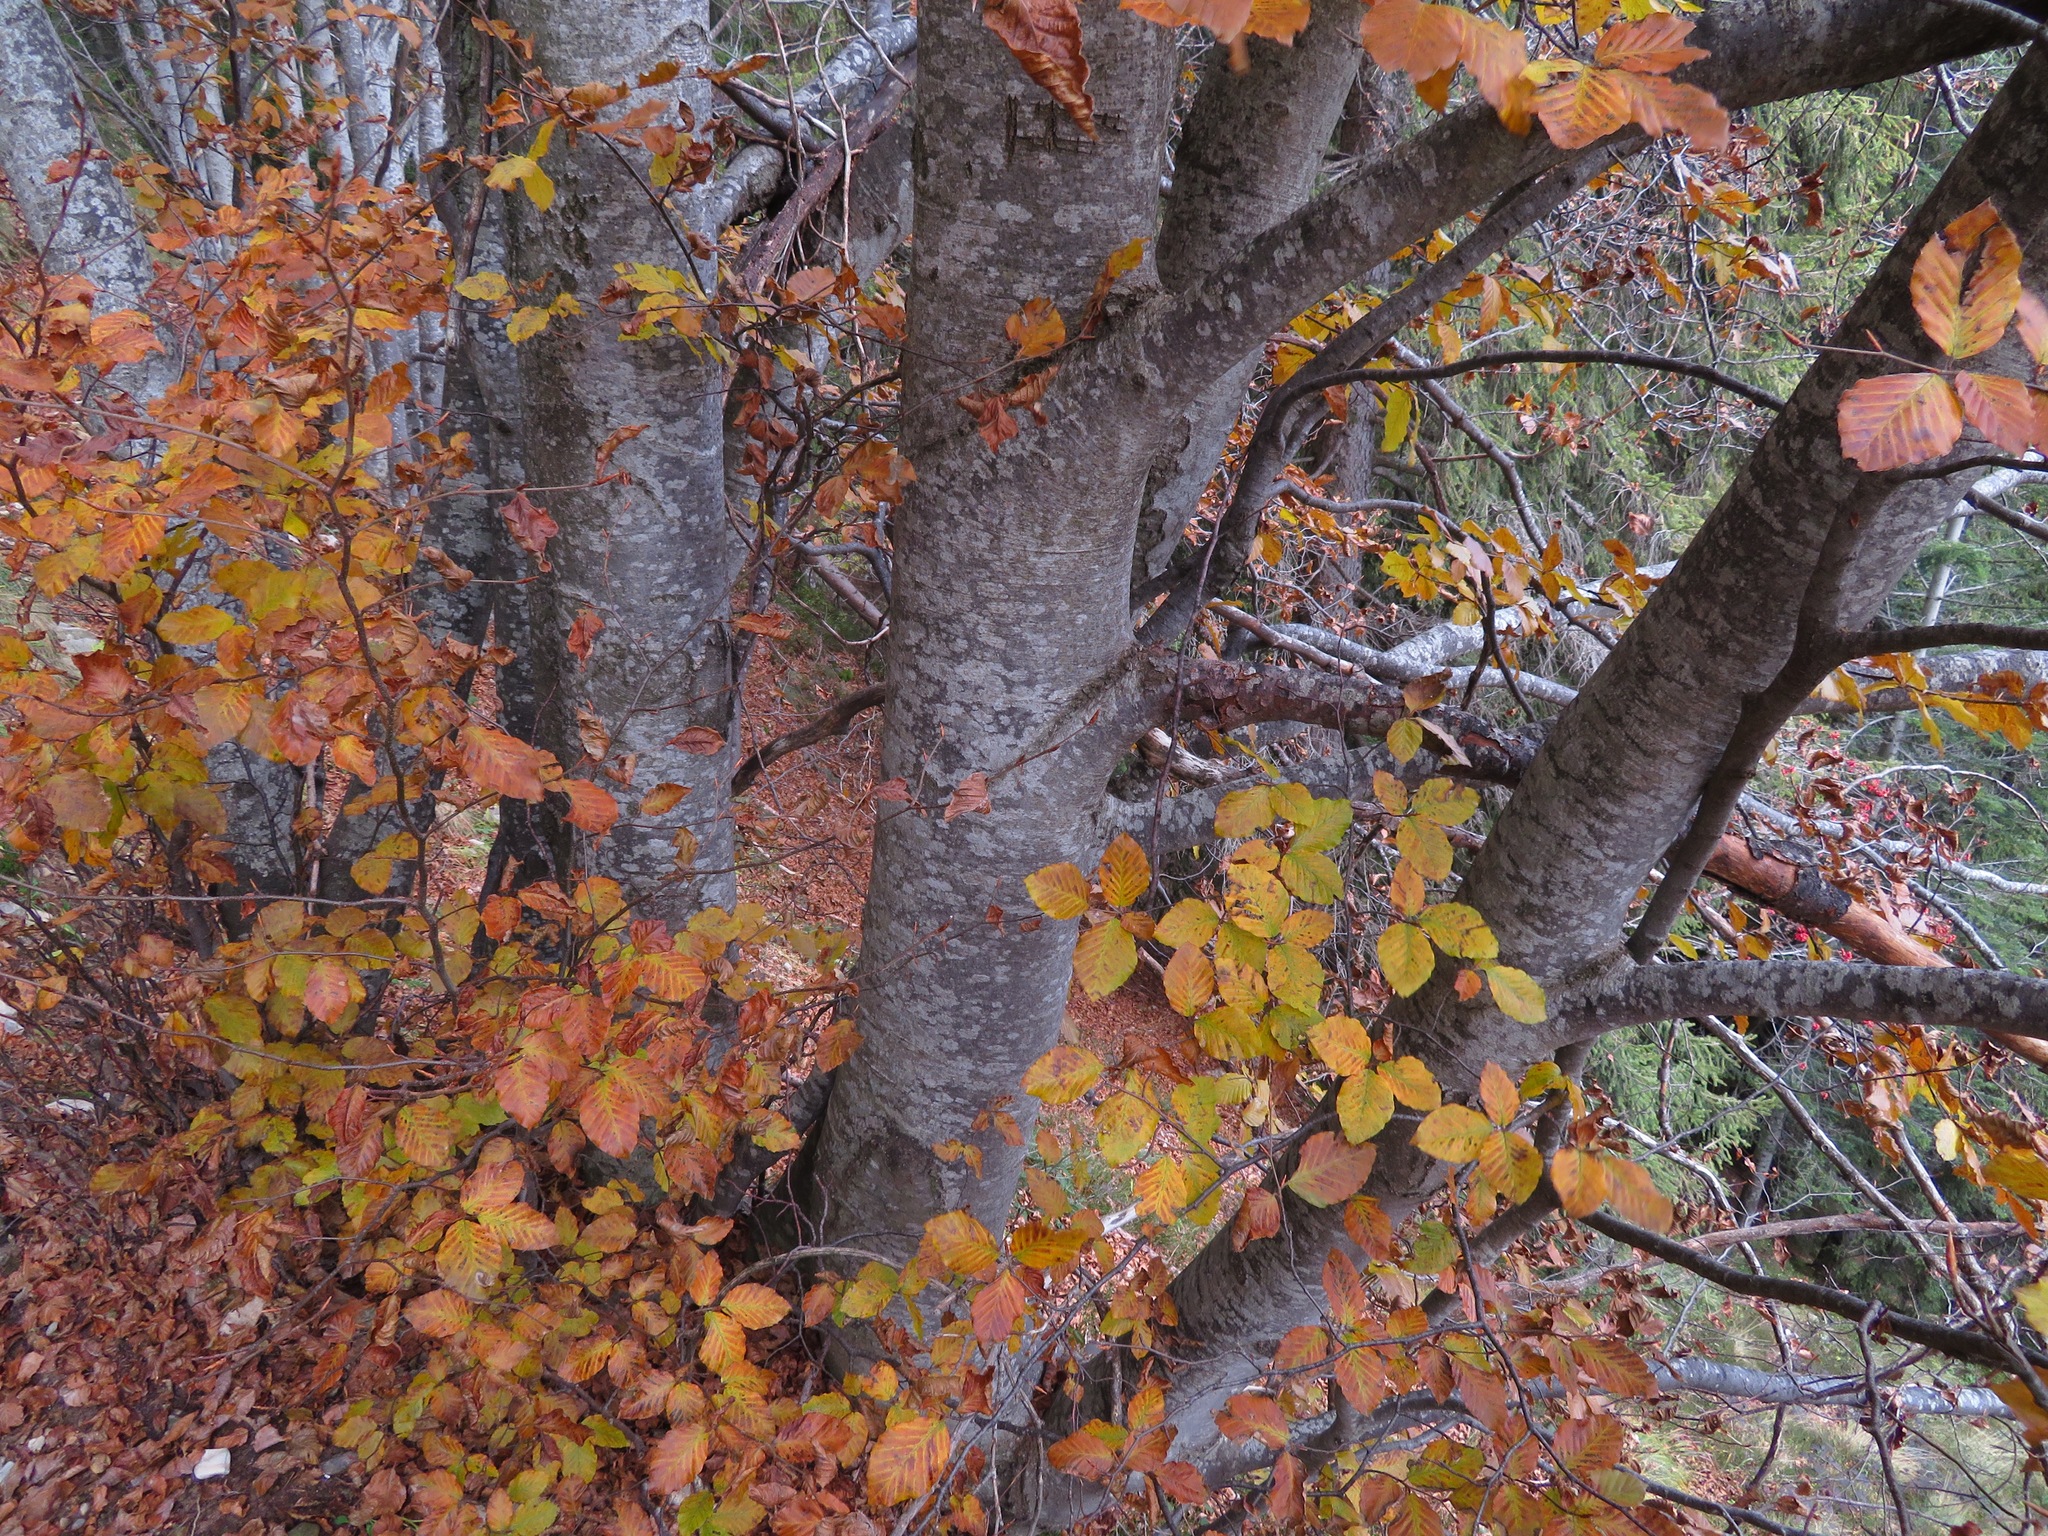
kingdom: Plantae
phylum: Tracheophyta
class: Magnoliopsida
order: Fagales
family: Fagaceae
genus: Fagus
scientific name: Fagus sylvatica
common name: Beech
